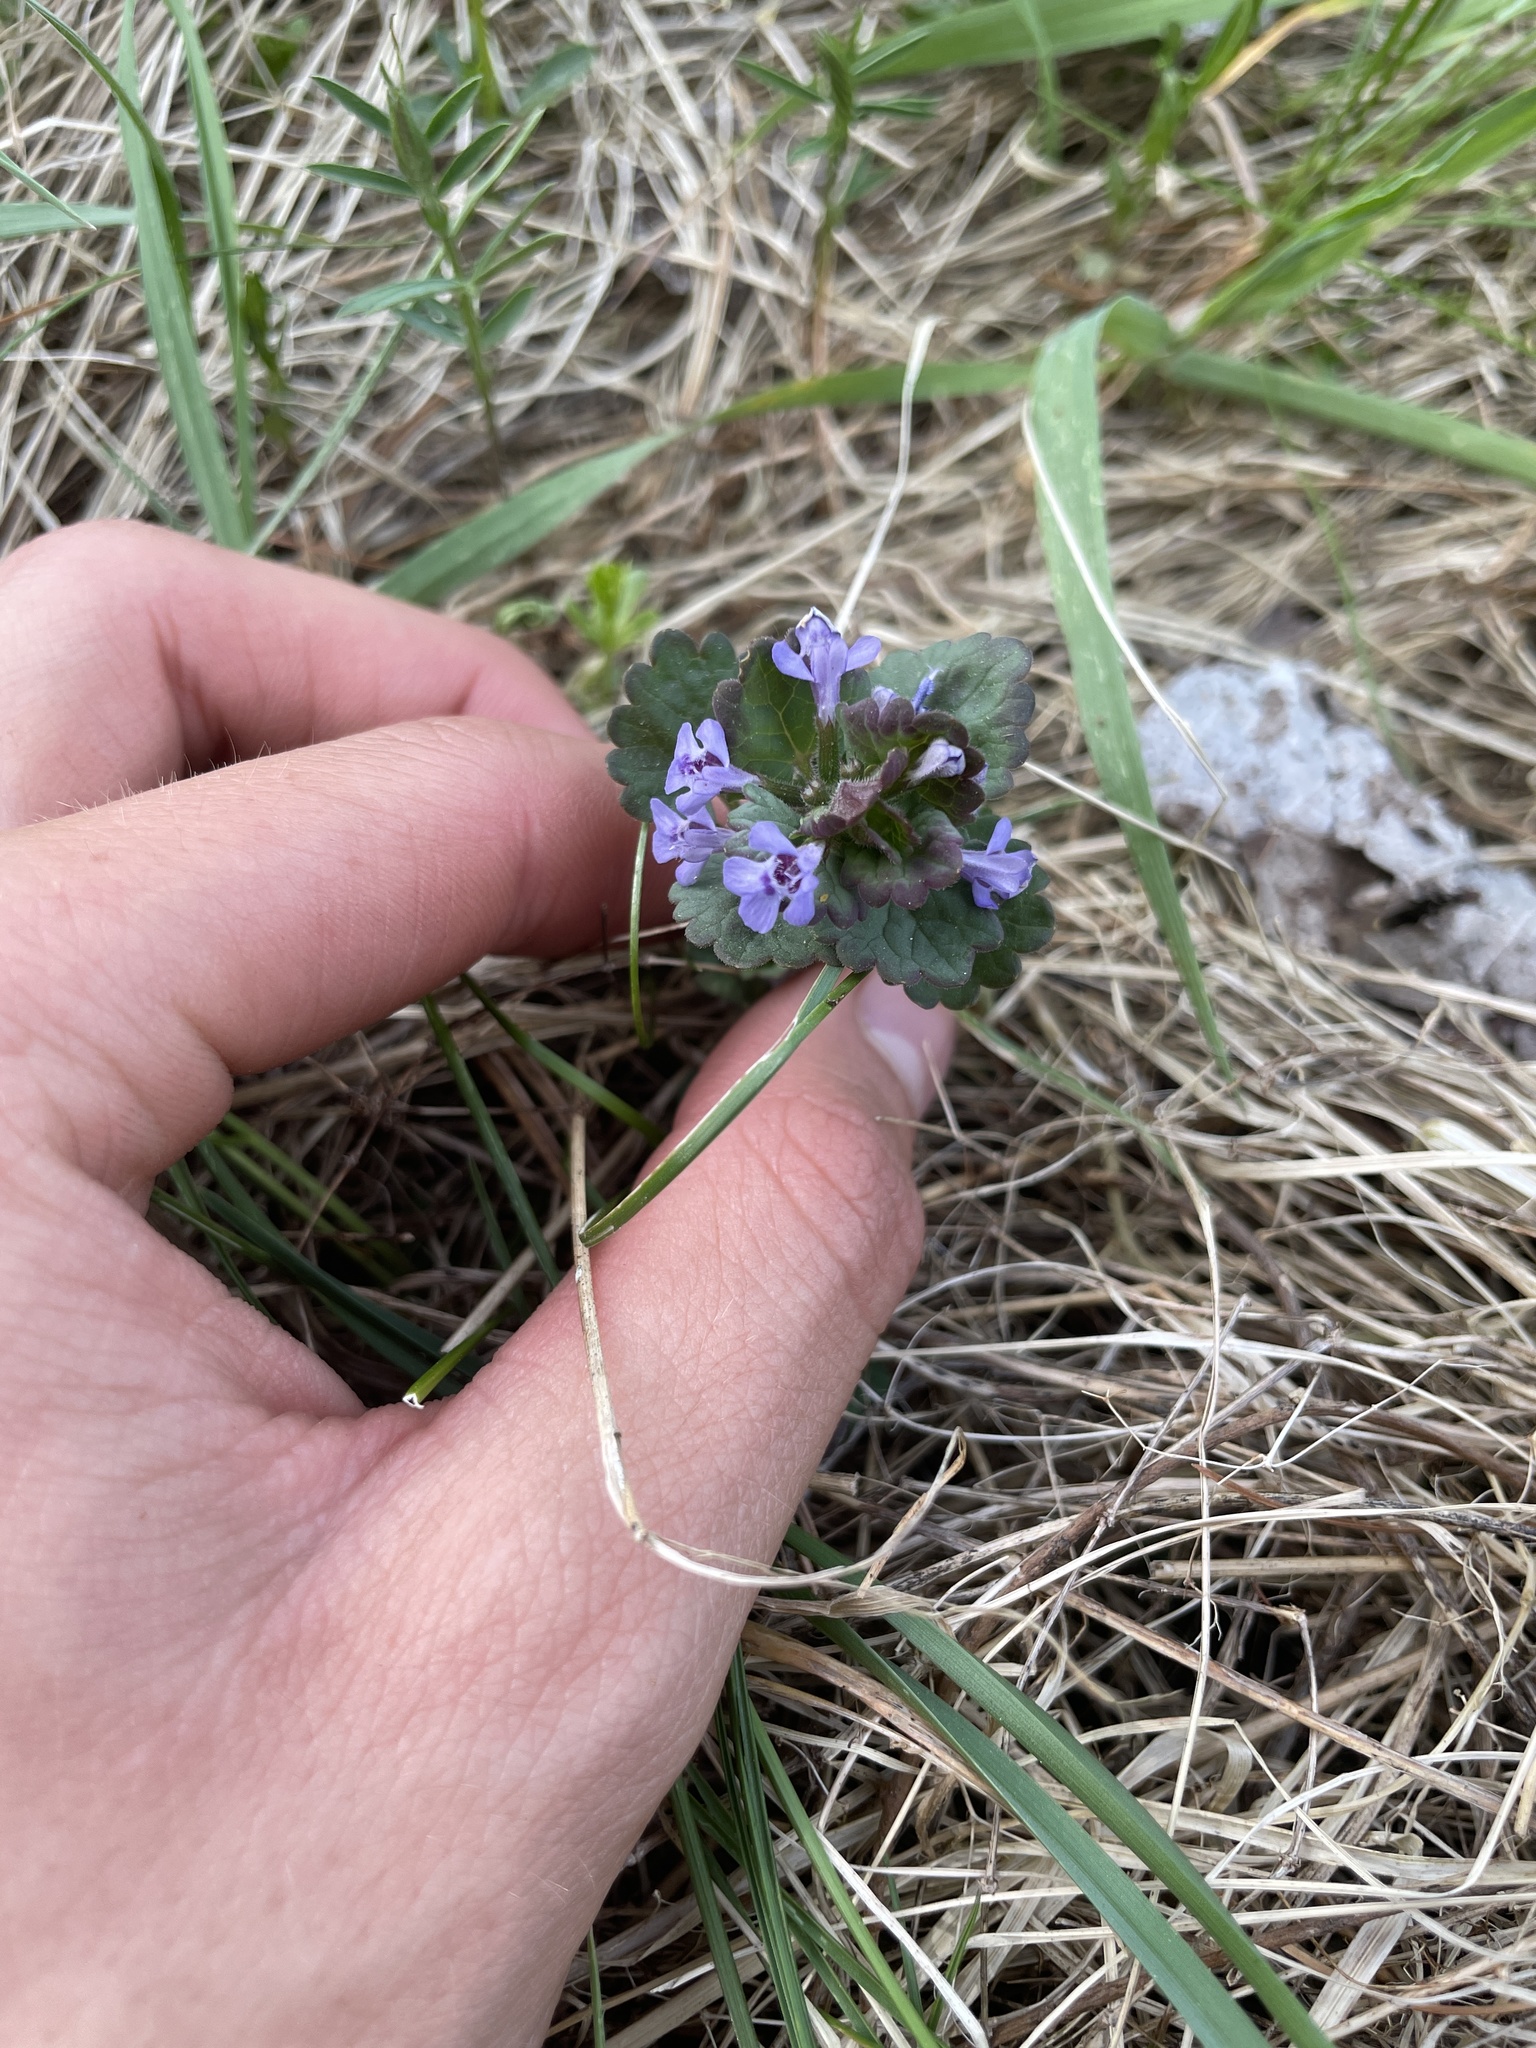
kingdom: Plantae
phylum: Tracheophyta
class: Magnoliopsida
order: Lamiales
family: Lamiaceae
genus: Glechoma
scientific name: Glechoma hederacea
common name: Ground ivy
